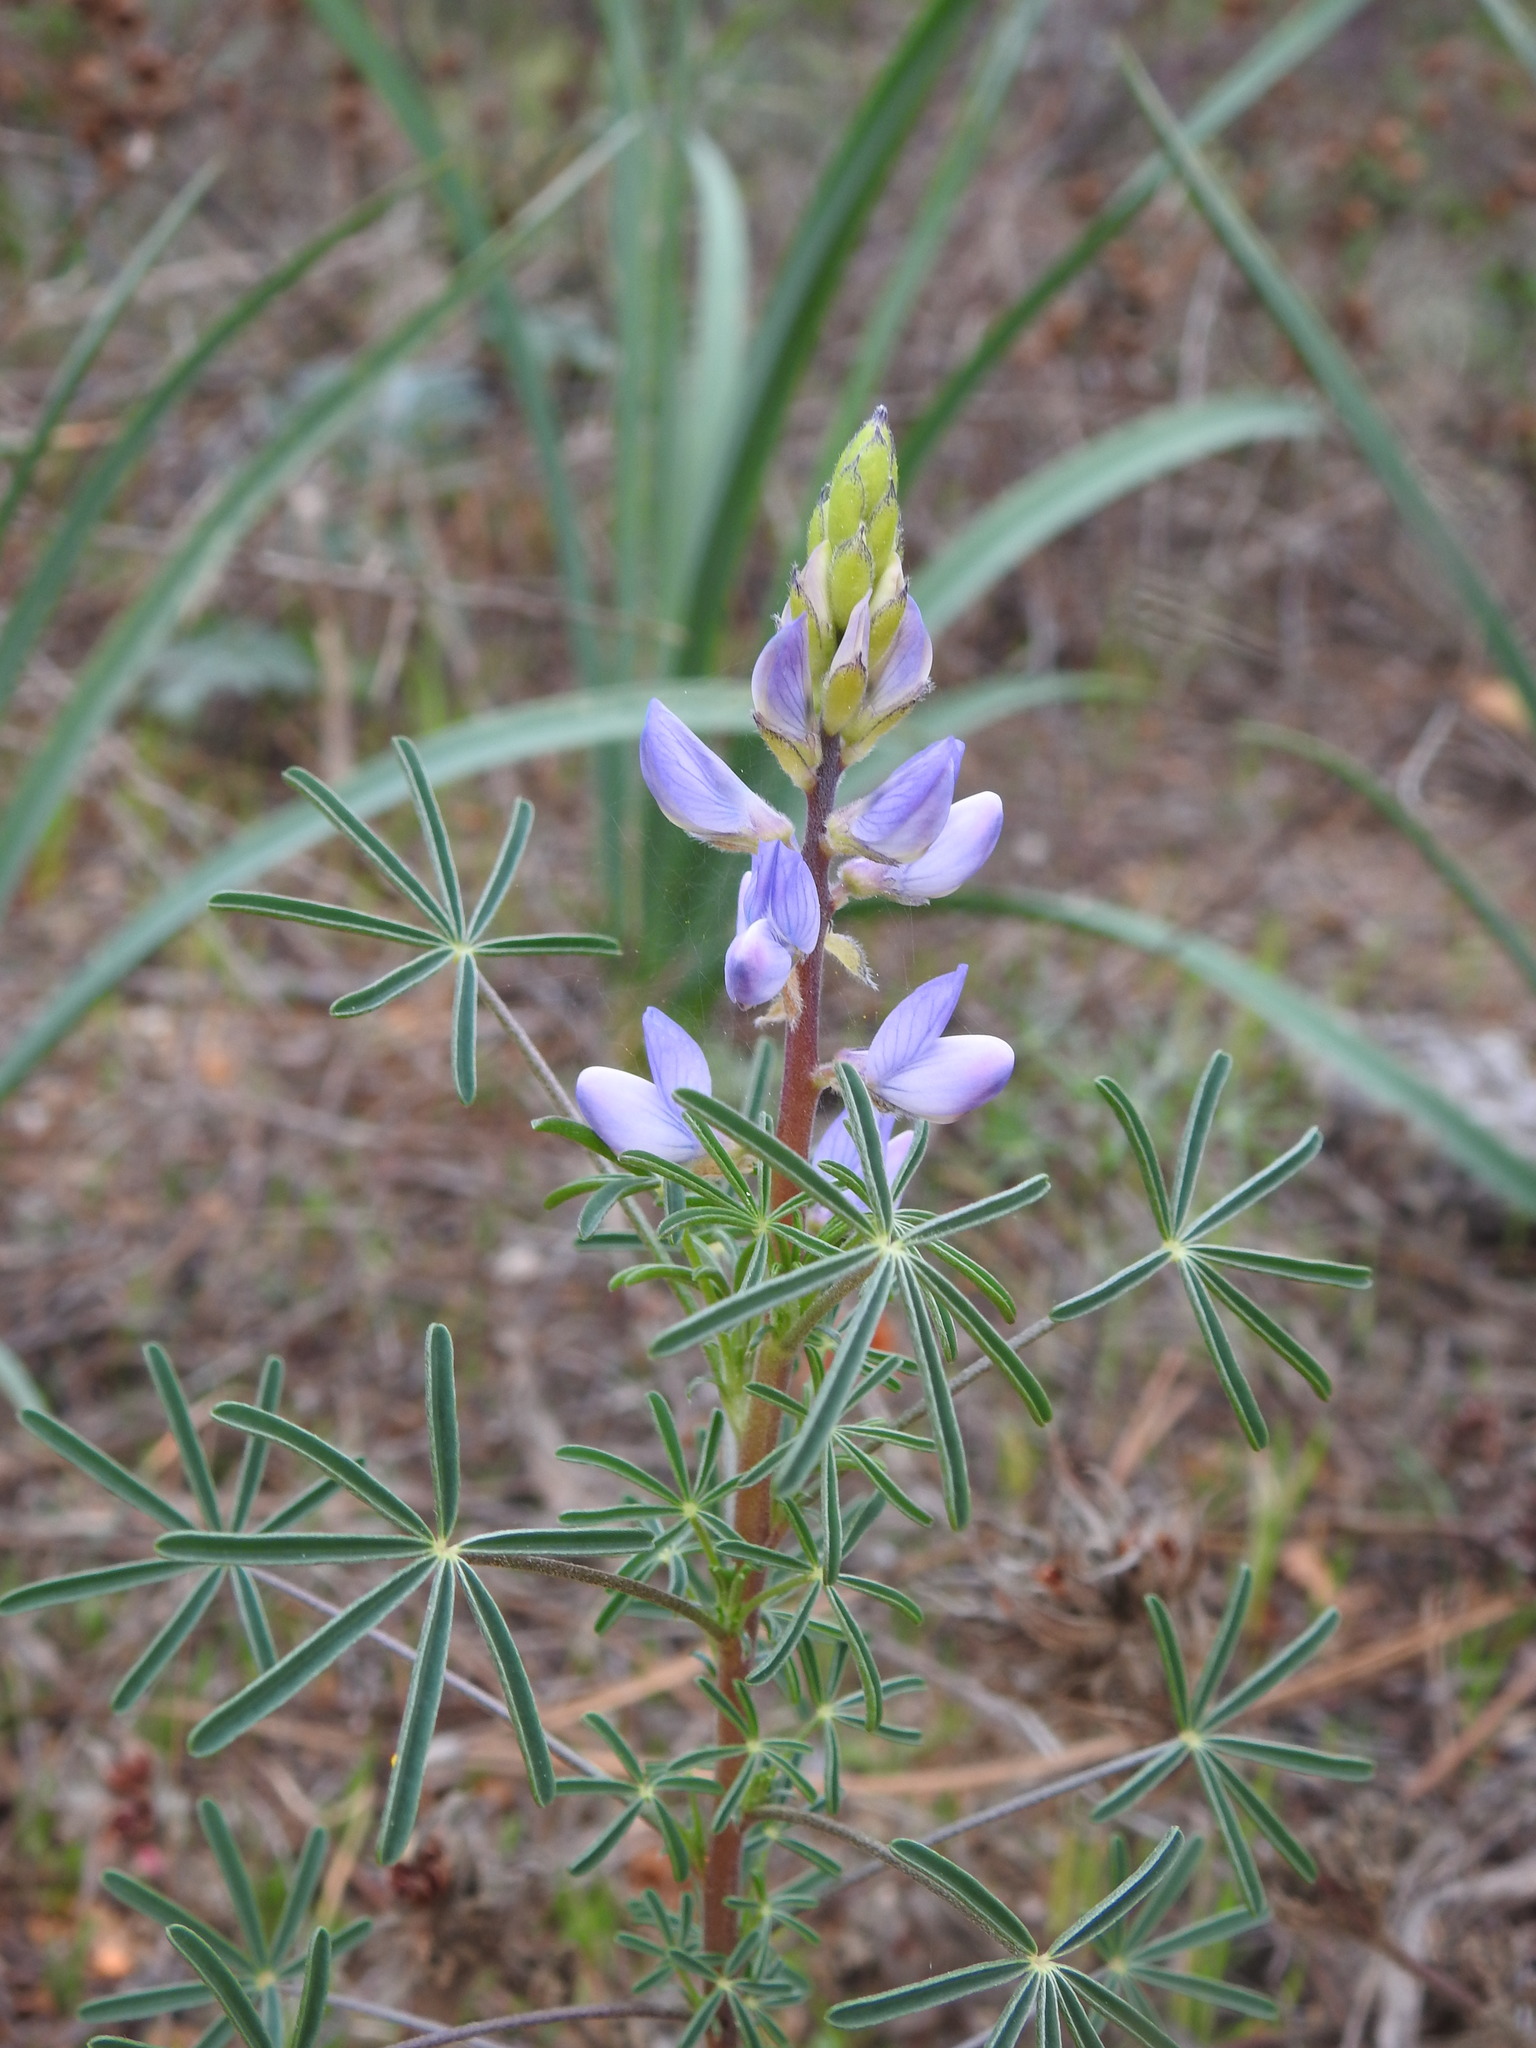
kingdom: Plantae
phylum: Tracheophyta
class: Magnoliopsida
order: Fabales
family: Fabaceae
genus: Lupinus
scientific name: Lupinus angustifolius
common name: Narrow-leaved lupin
